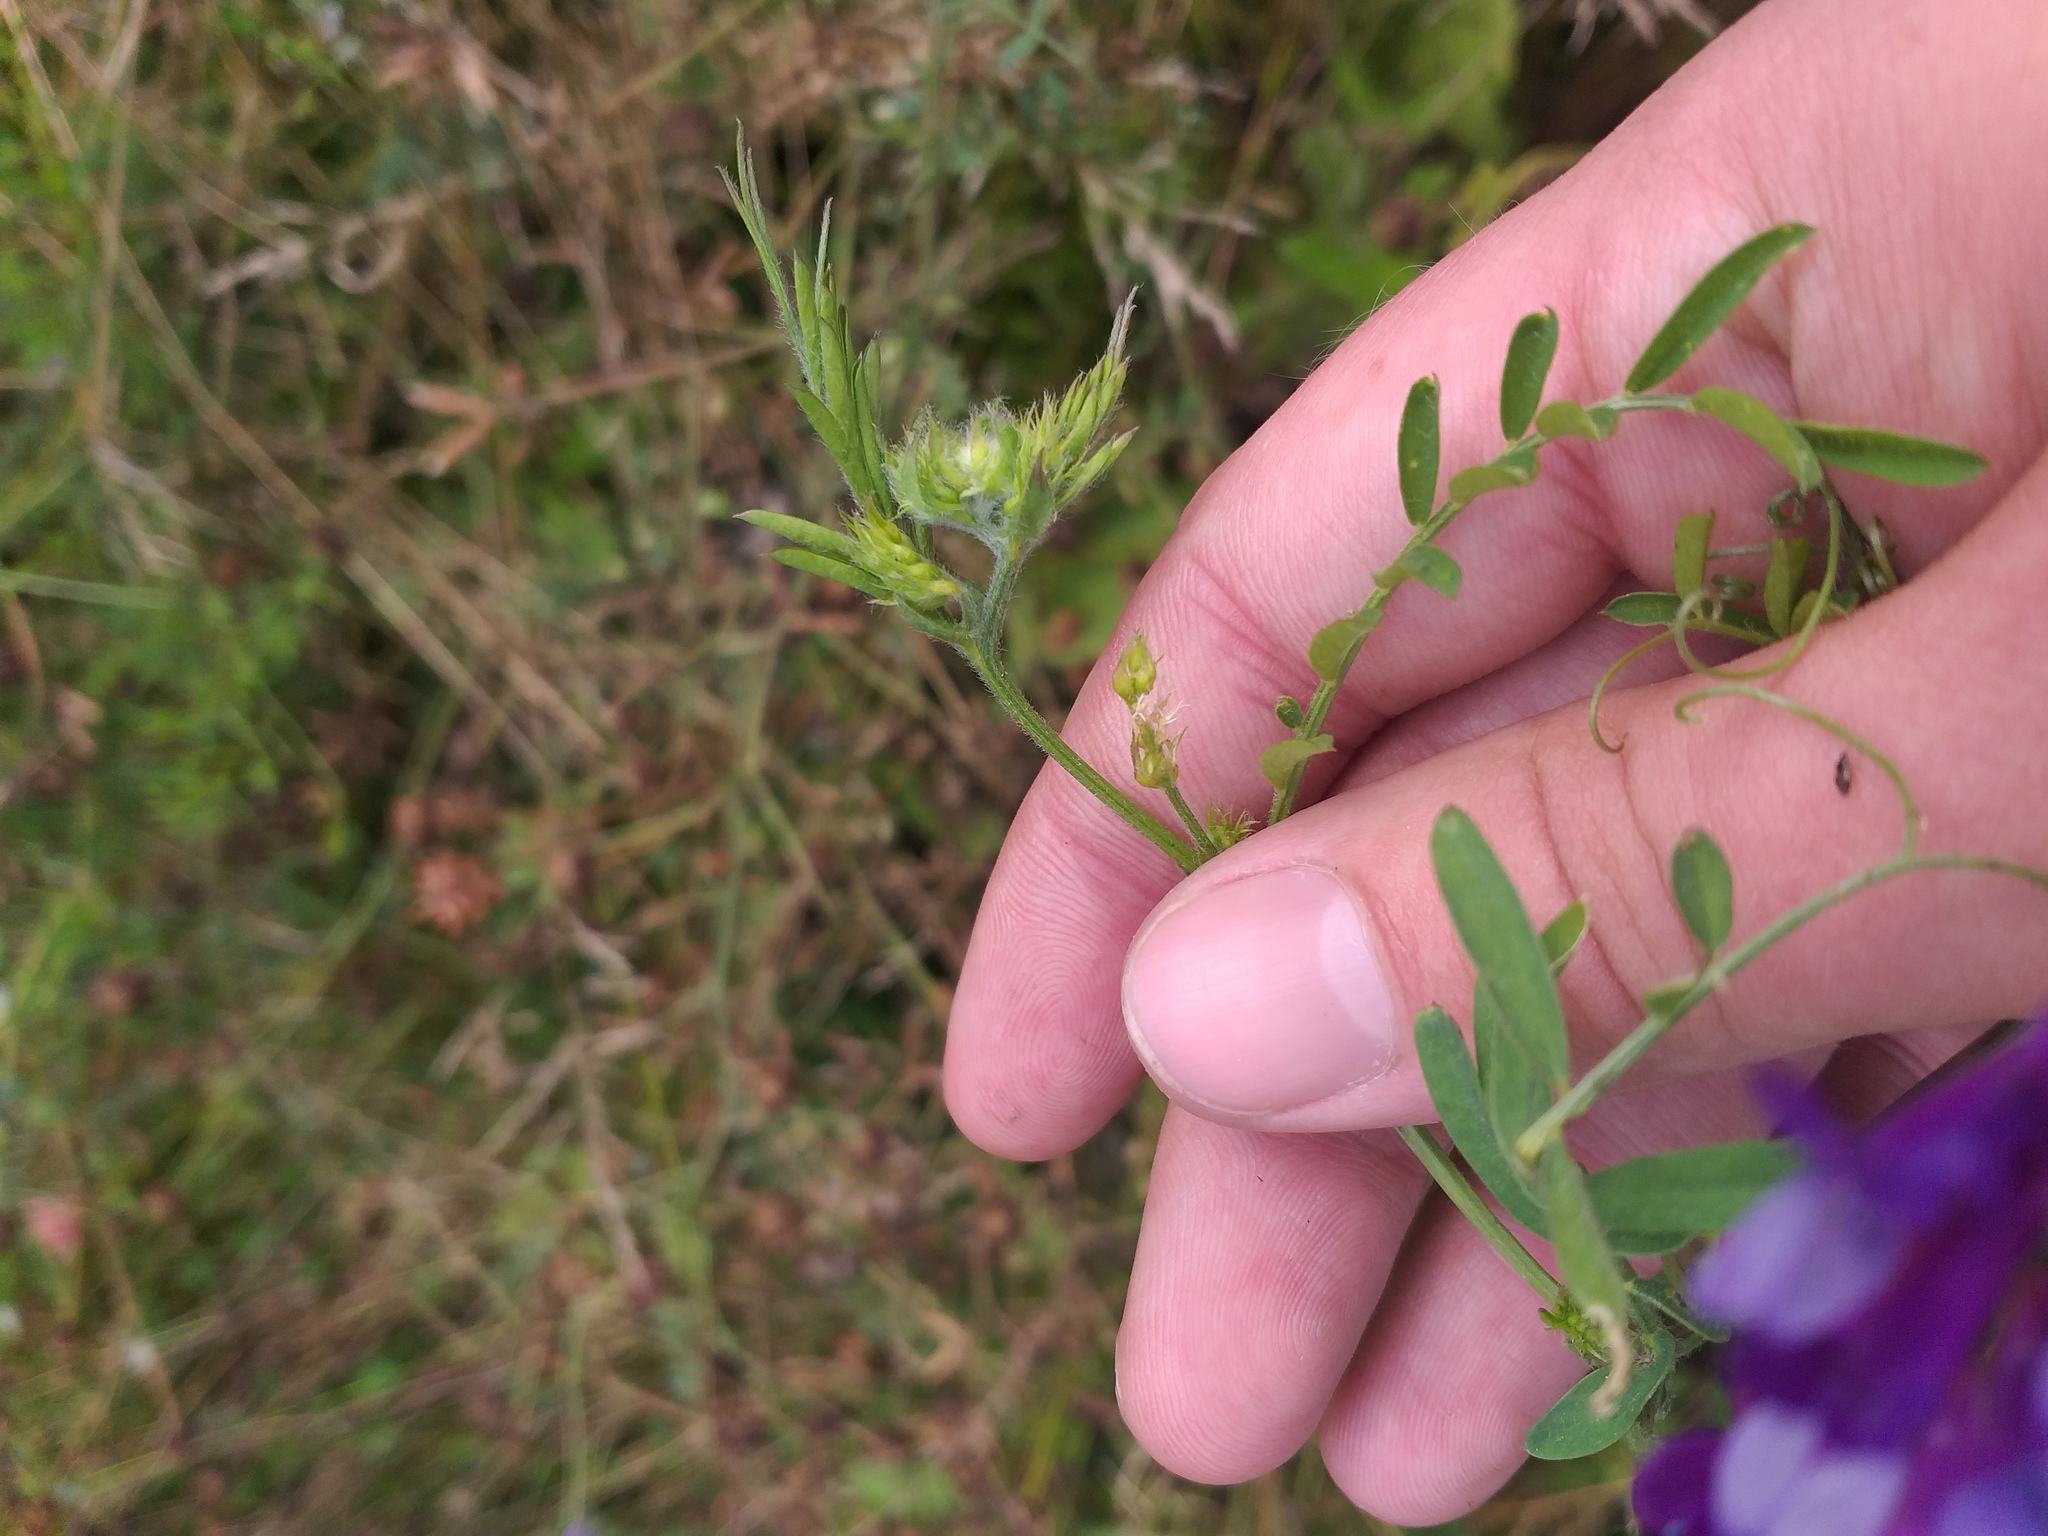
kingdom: Plantae
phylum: Tracheophyta
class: Magnoliopsida
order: Fabales
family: Fabaceae
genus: Vicia
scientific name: Vicia villosa
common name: Fodder vetch
